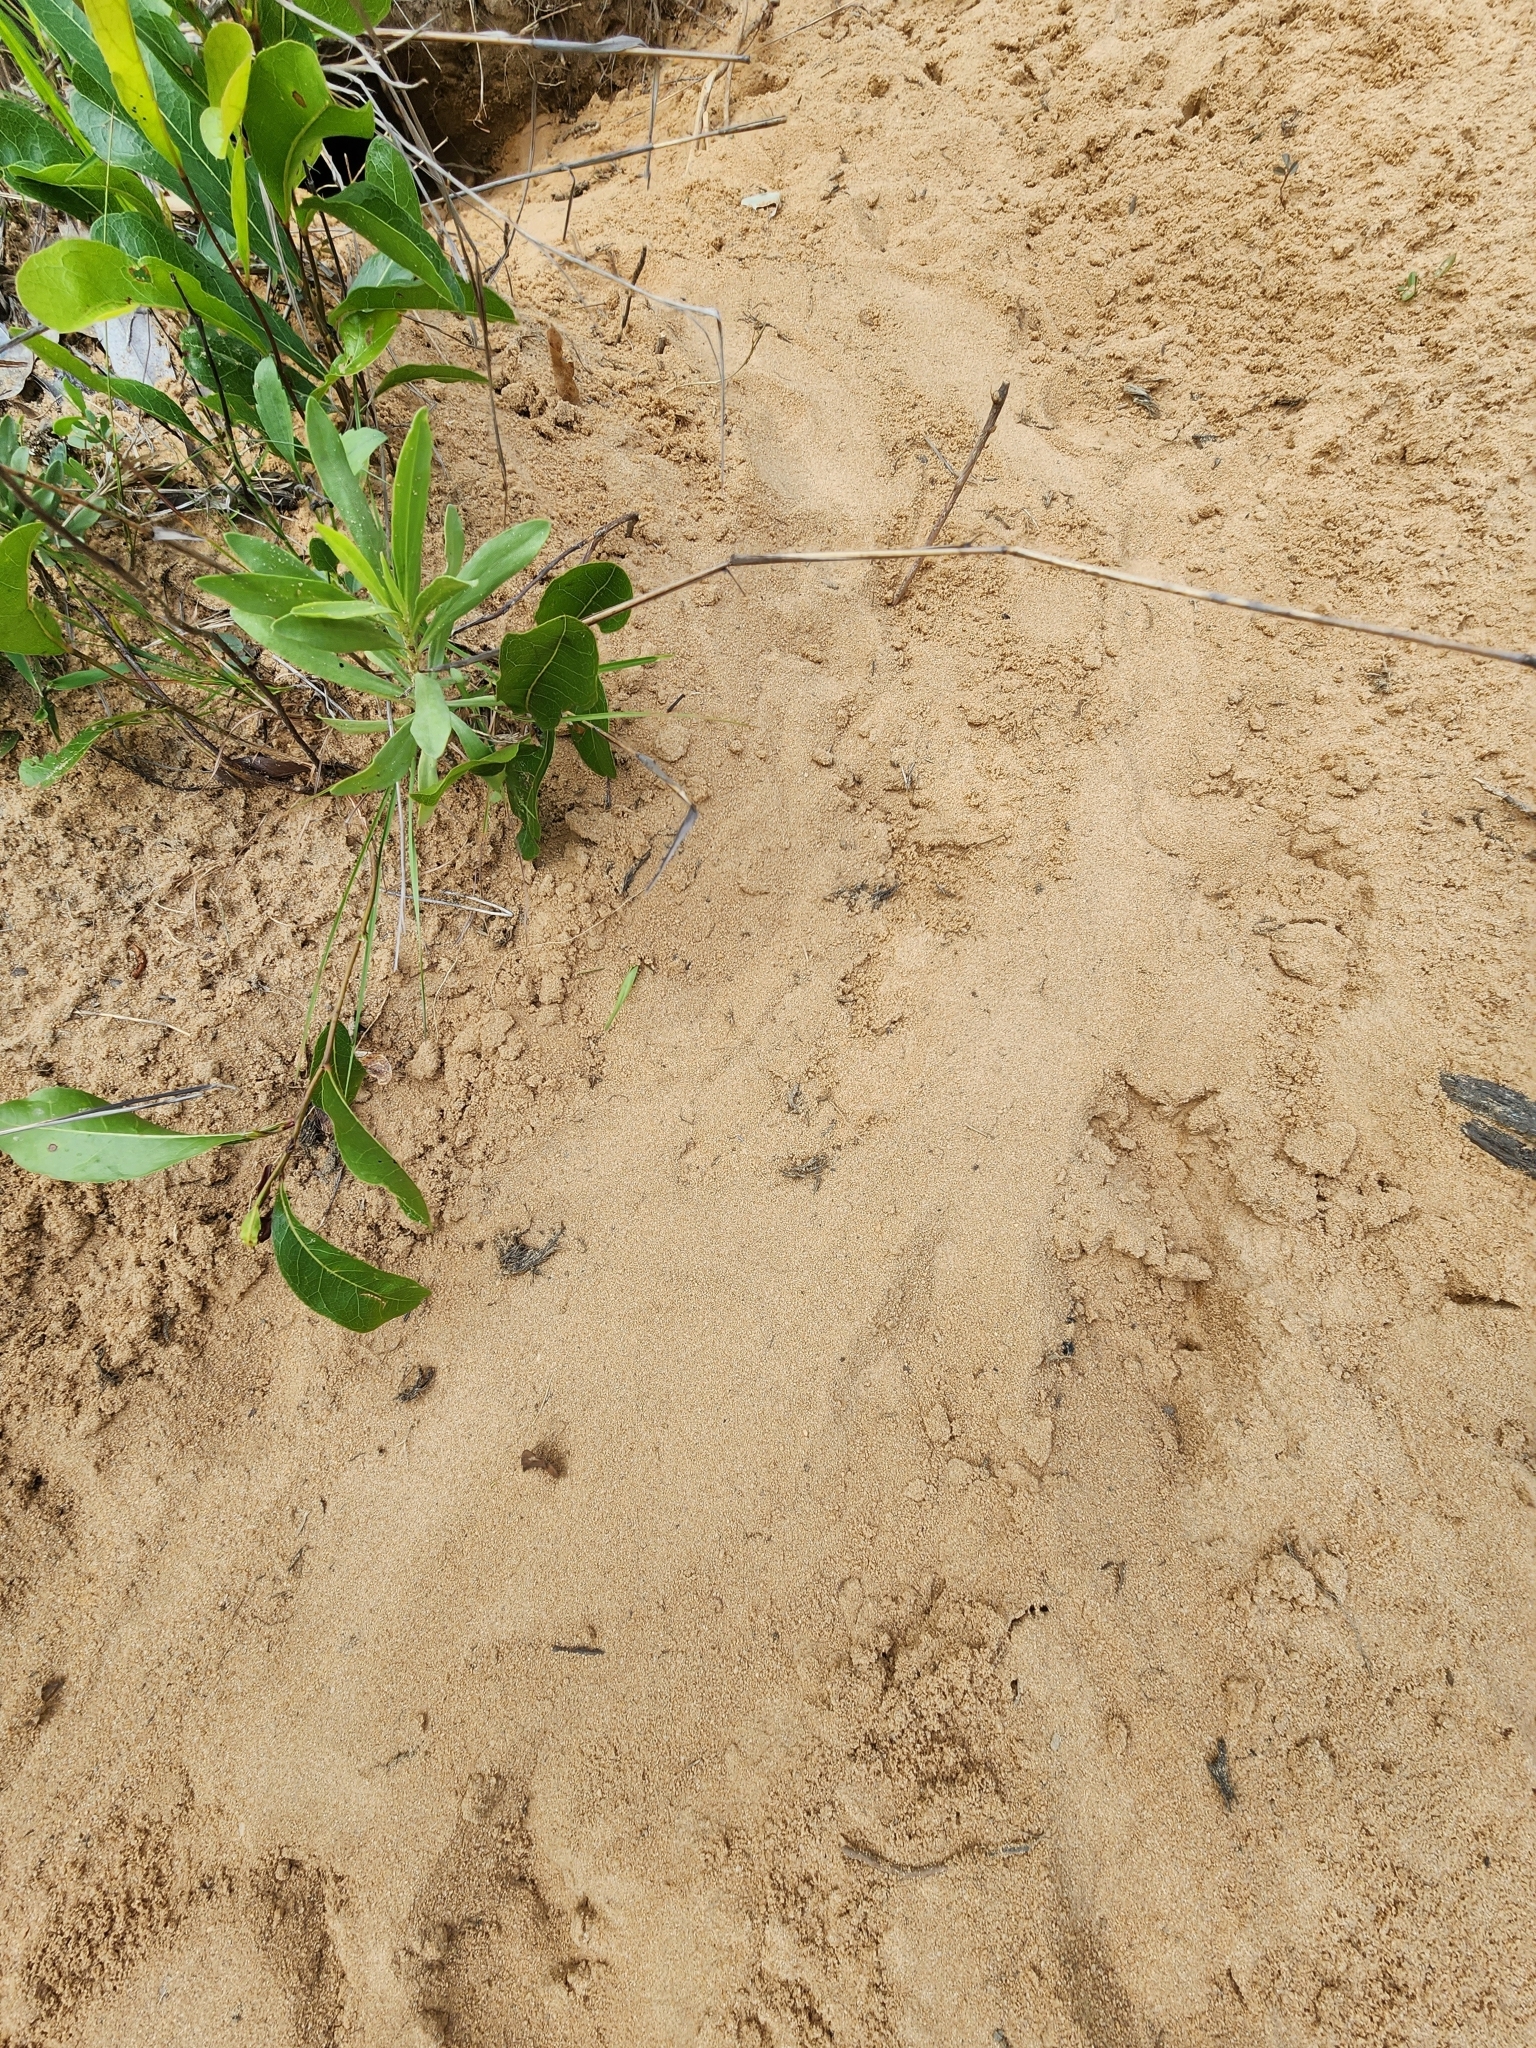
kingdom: Animalia
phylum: Chordata
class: Testudines
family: Testudinidae
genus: Gopherus
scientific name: Gopherus polyphemus
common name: Florida gopher tortoise
